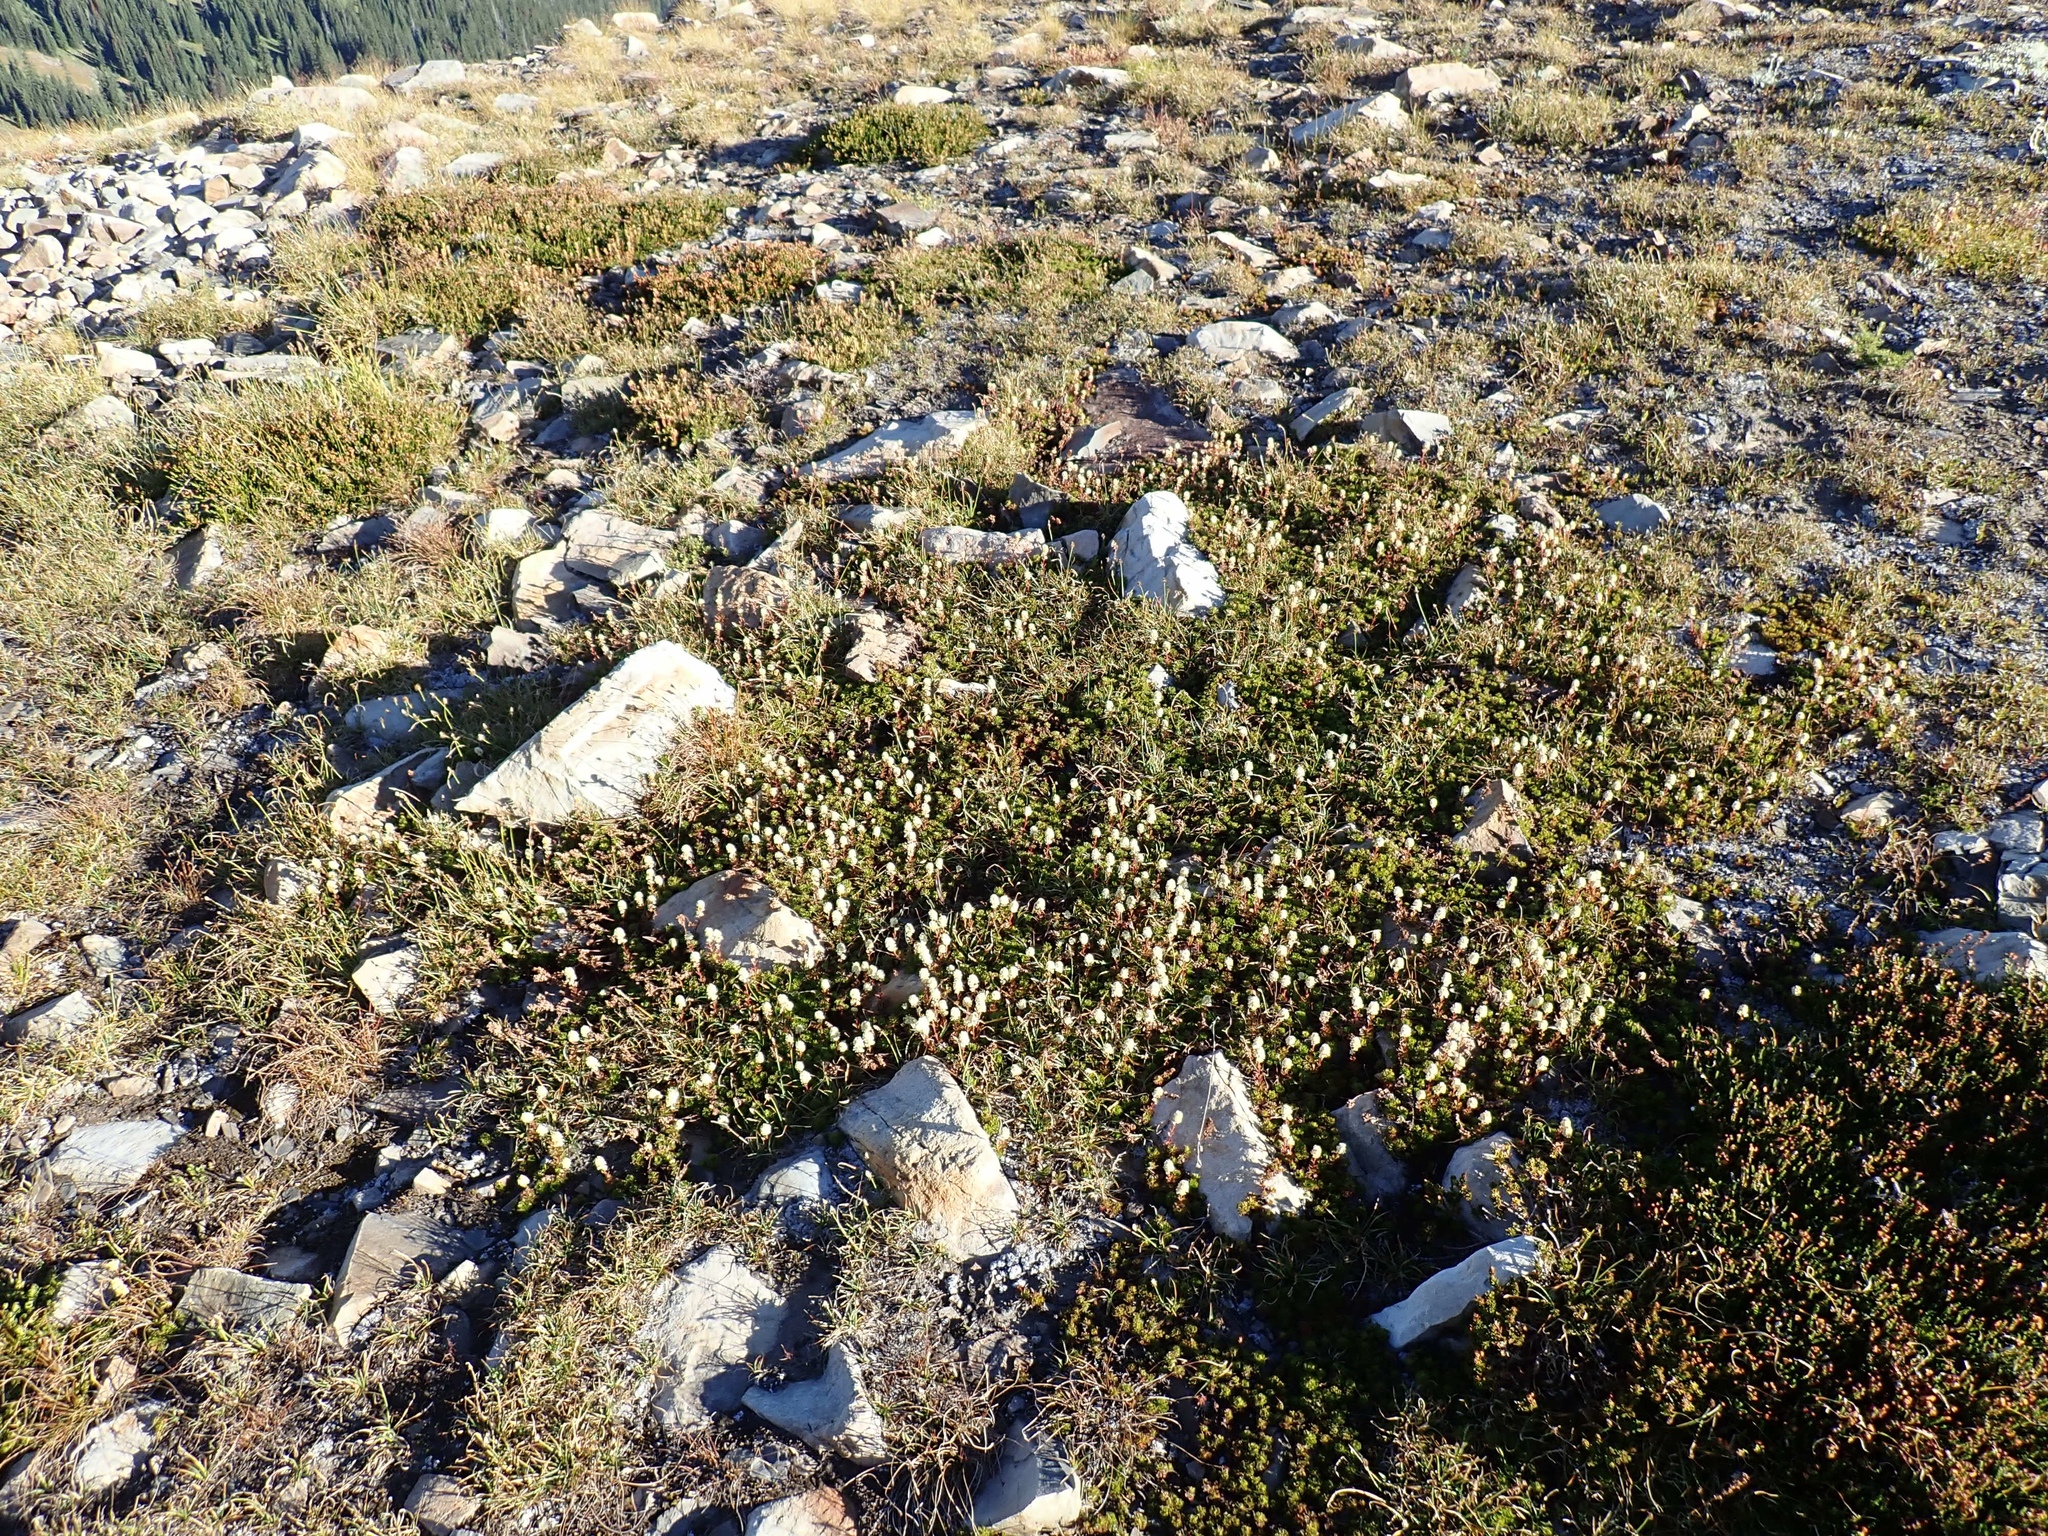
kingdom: Plantae
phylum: Tracheophyta
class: Magnoliopsida
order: Rosales
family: Rosaceae
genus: Luetkea
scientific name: Luetkea pectinata
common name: Partridgefoot
